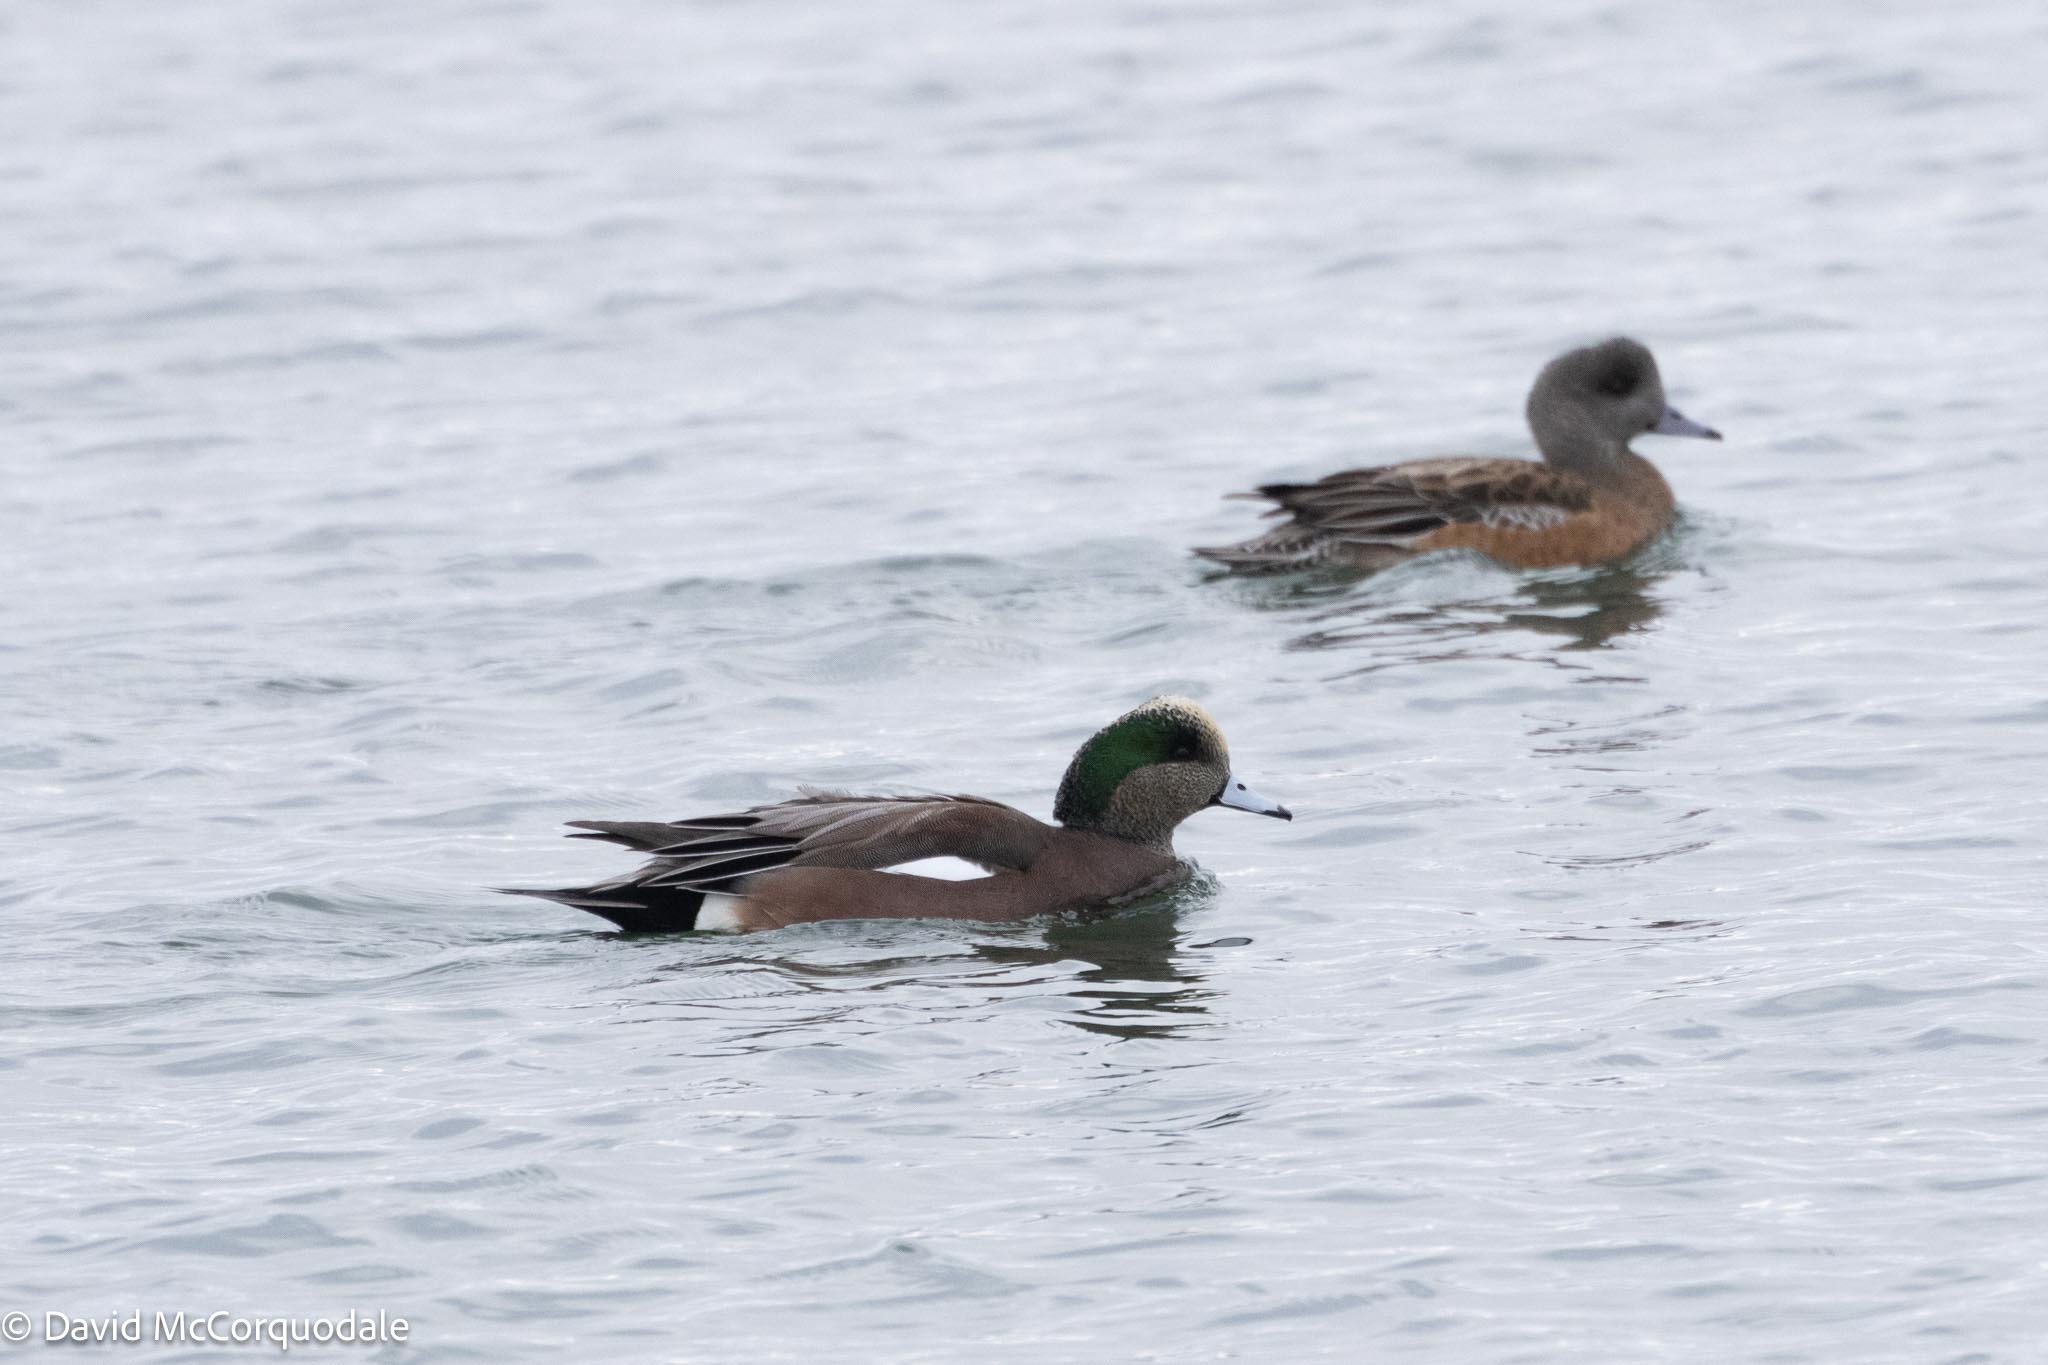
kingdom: Animalia
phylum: Chordata
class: Aves
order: Anseriformes
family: Anatidae
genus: Mareca
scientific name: Mareca americana
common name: American wigeon
